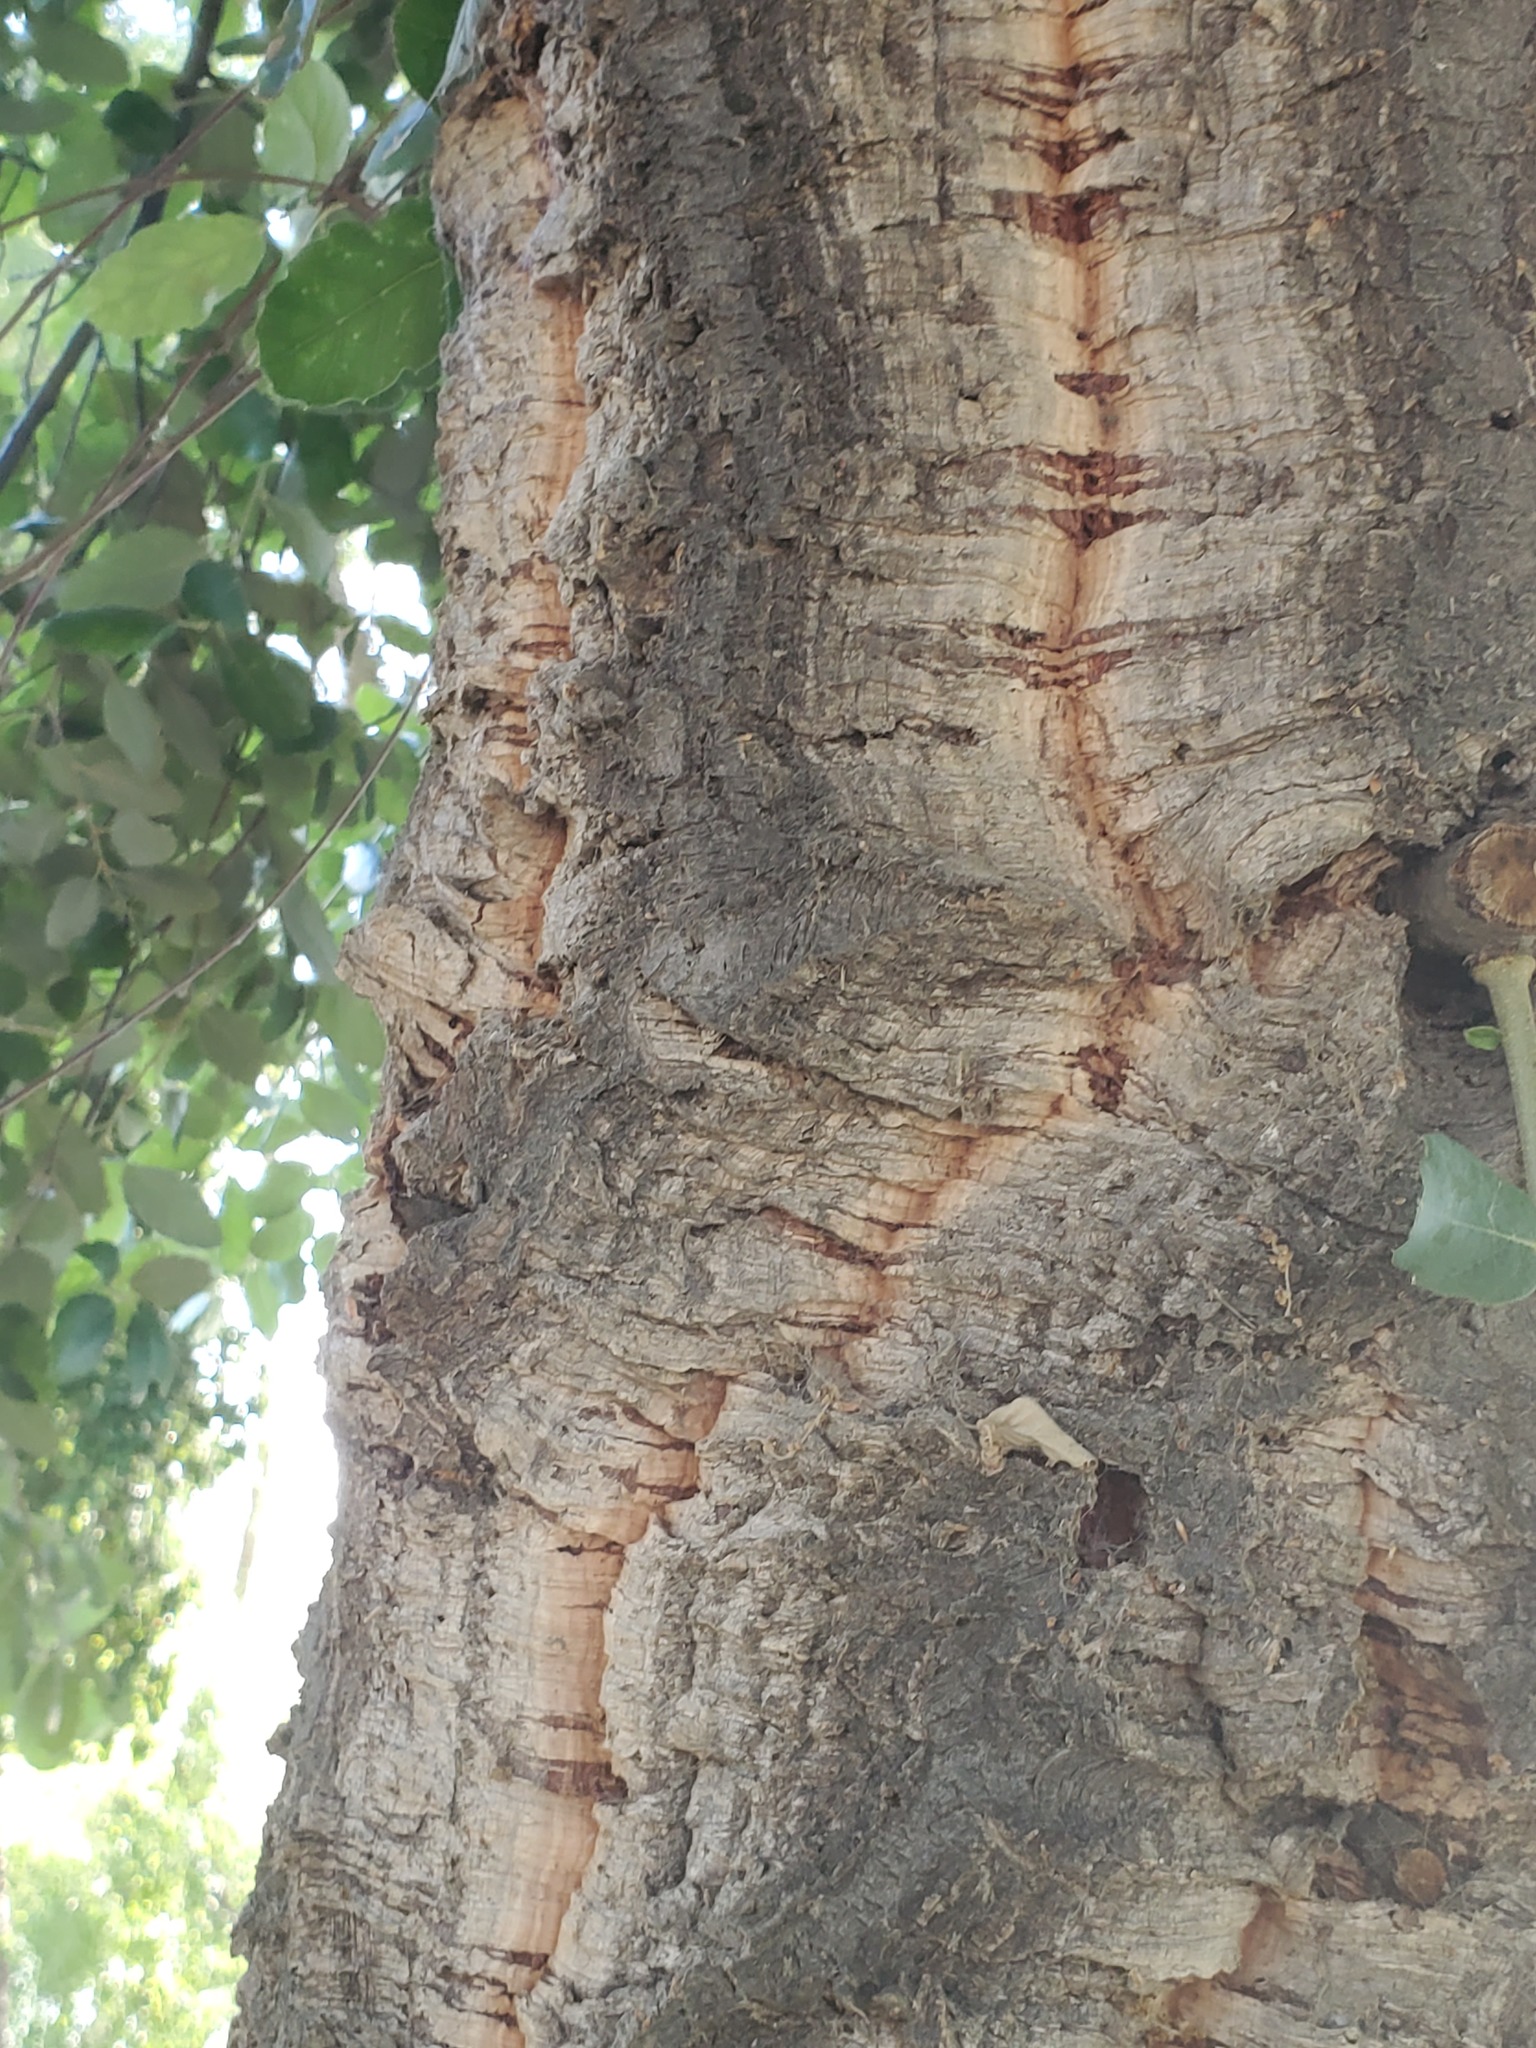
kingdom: Plantae
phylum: Tracheophyta
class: Magnoliopsida
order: Fagales
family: Fagaceae
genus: Quercus
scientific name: Quercus suber
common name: Cork oak
